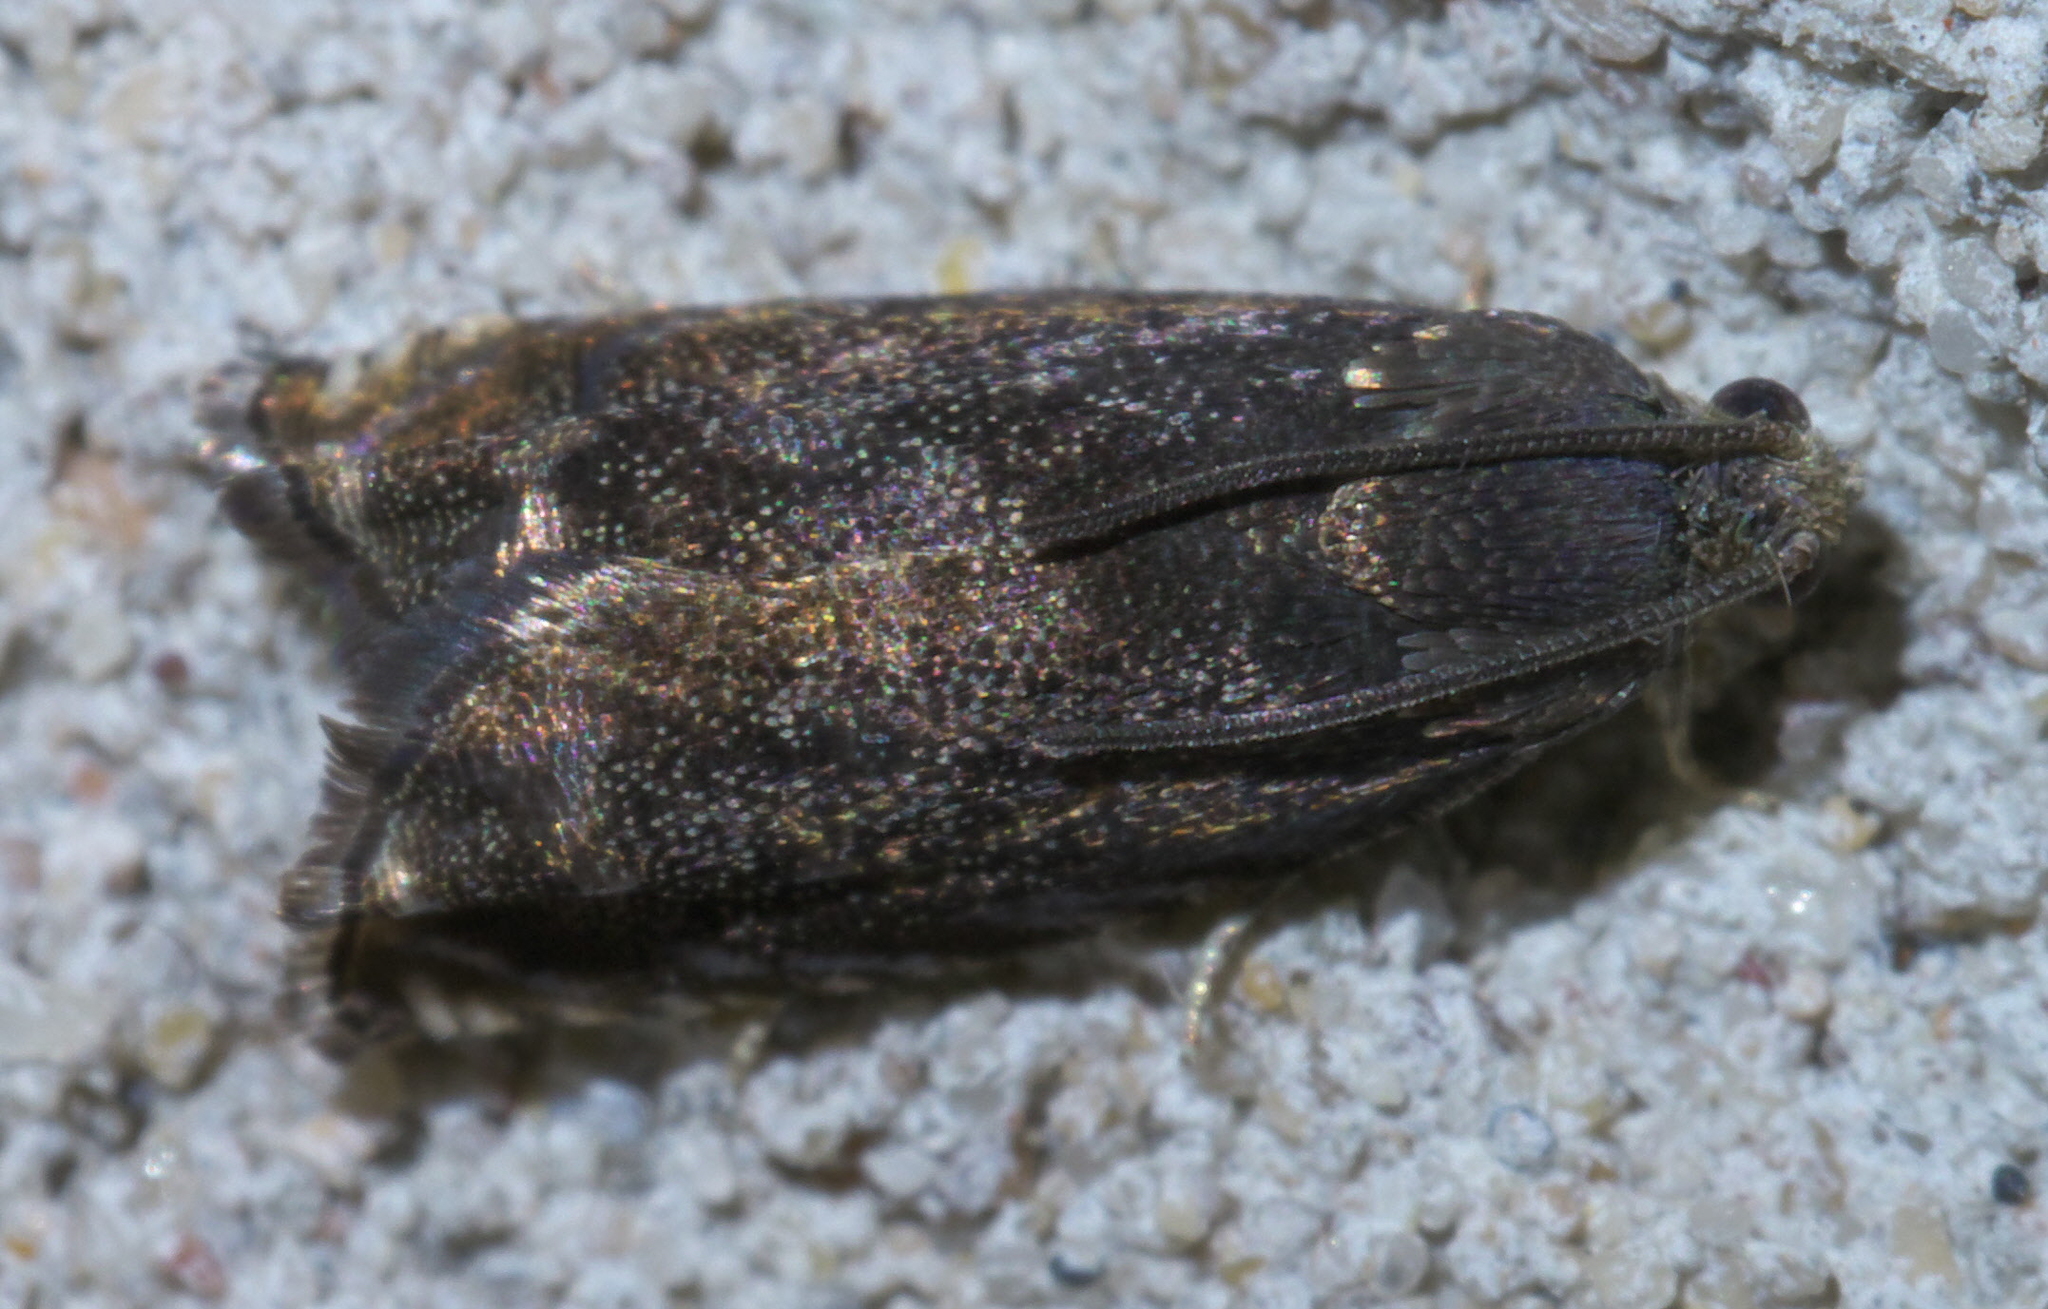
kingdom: Animalia
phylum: Arthropoda
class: Insecta
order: Lepidoptera
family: Tortricidae
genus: Cydia
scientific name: Cydia caryana
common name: Hickory shuckworm moth
